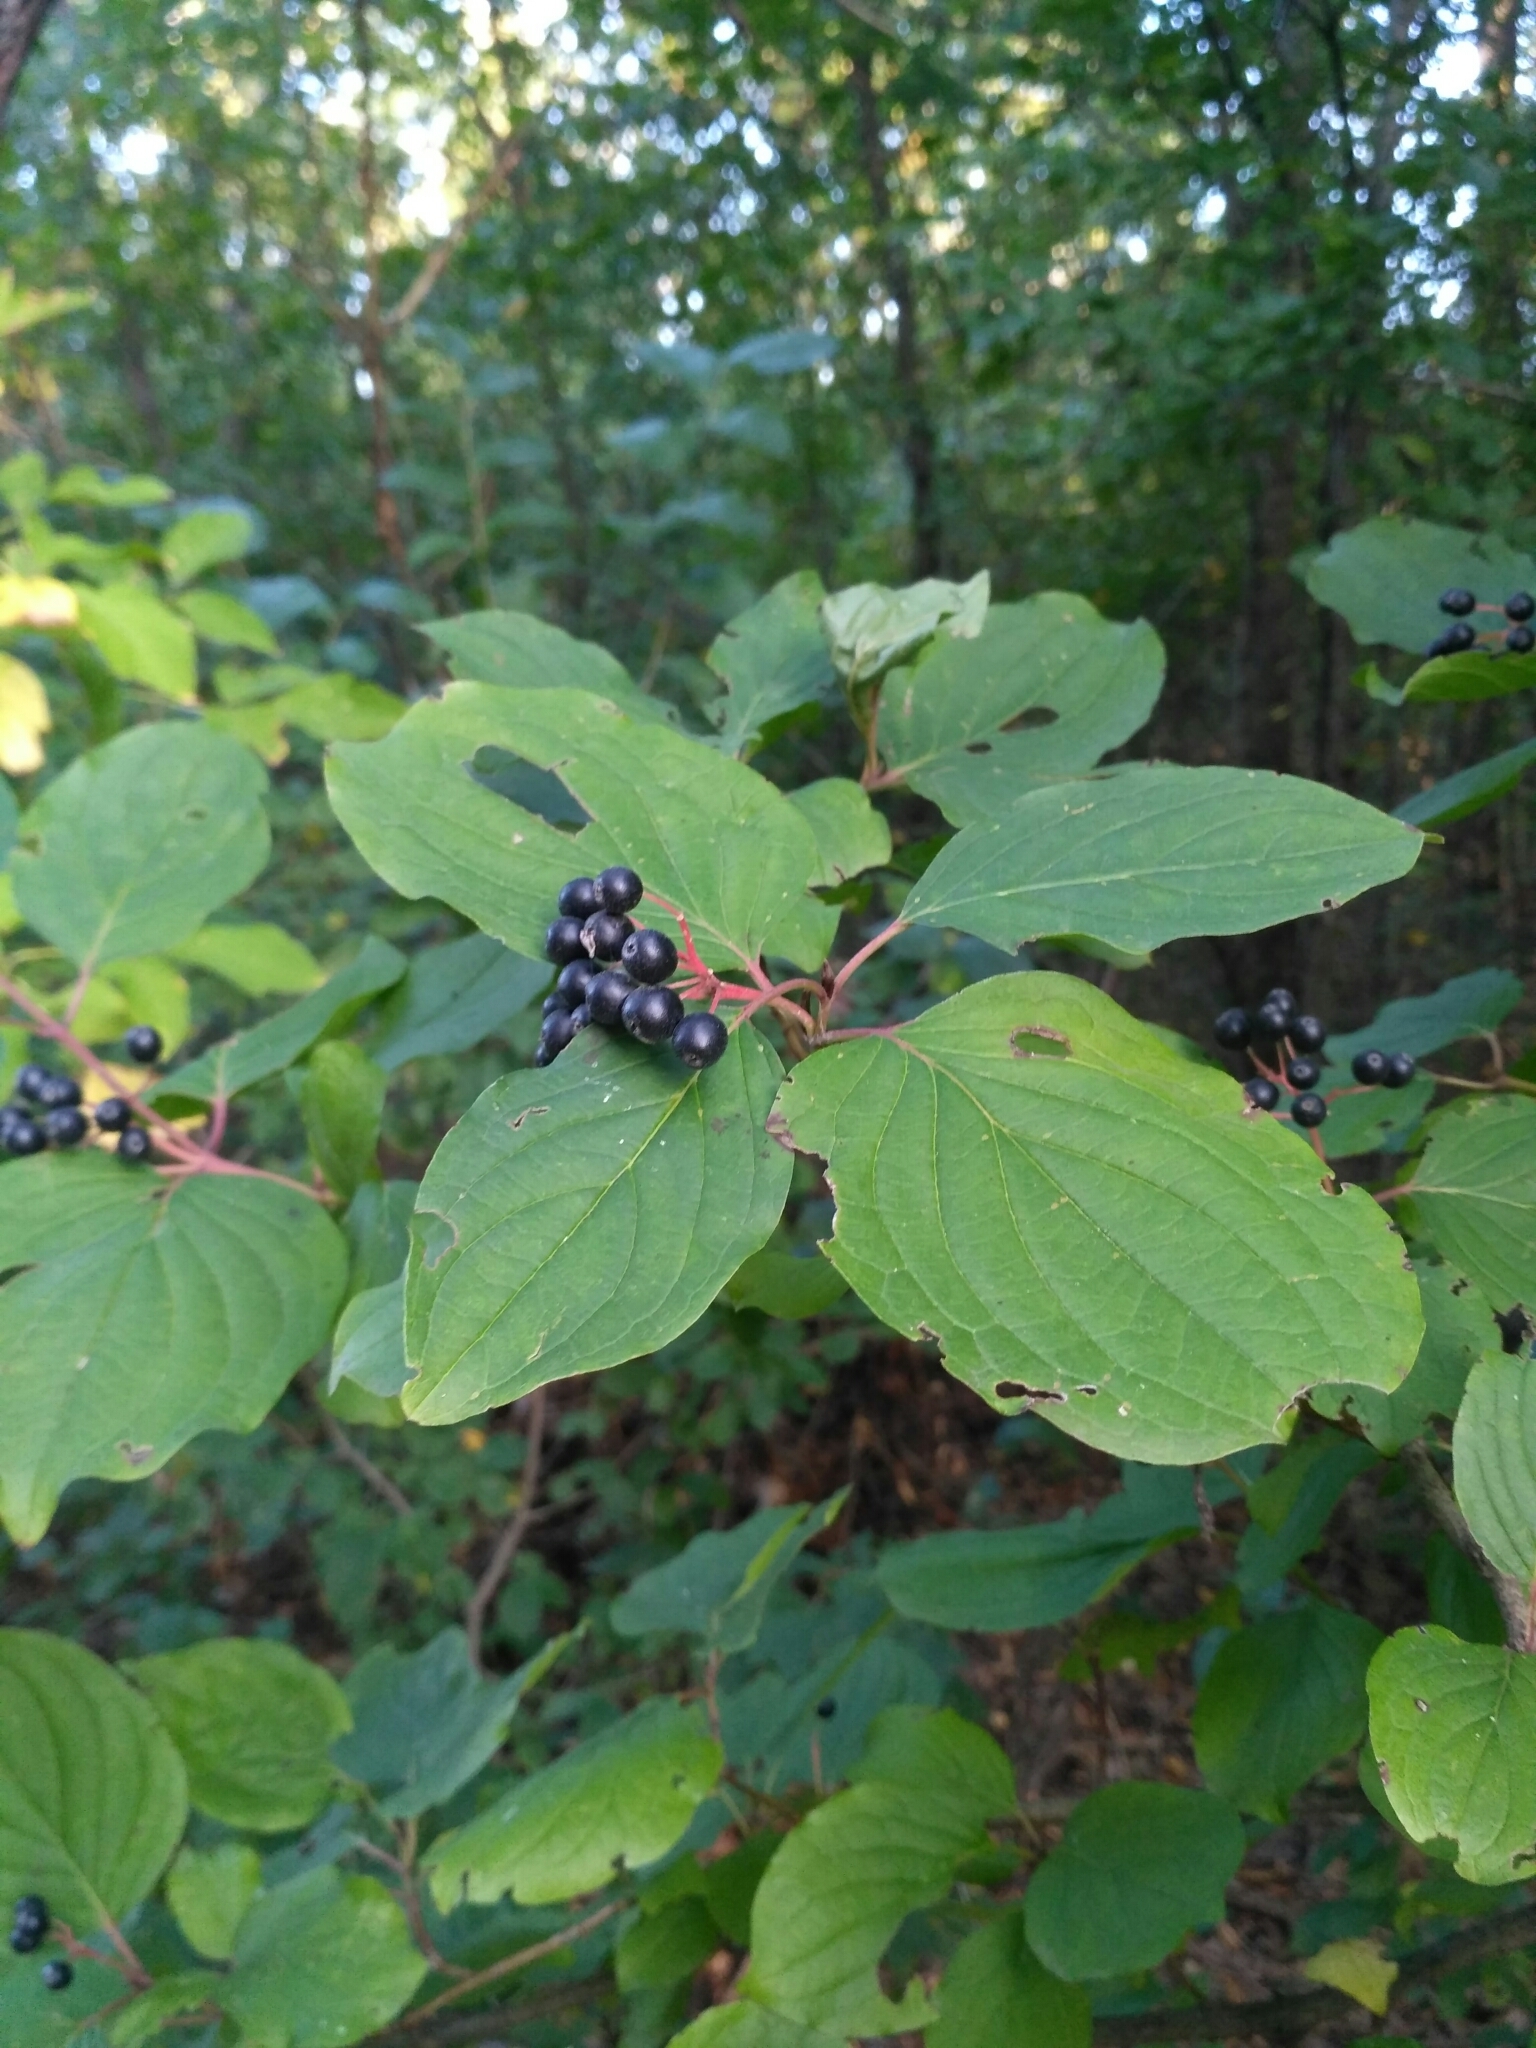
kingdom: Plantae
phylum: Tracheophyta
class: Magnoliopsida
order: Cornales
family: Cornaceae
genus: Cornus
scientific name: Cornus sanguinea
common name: Dogwood
